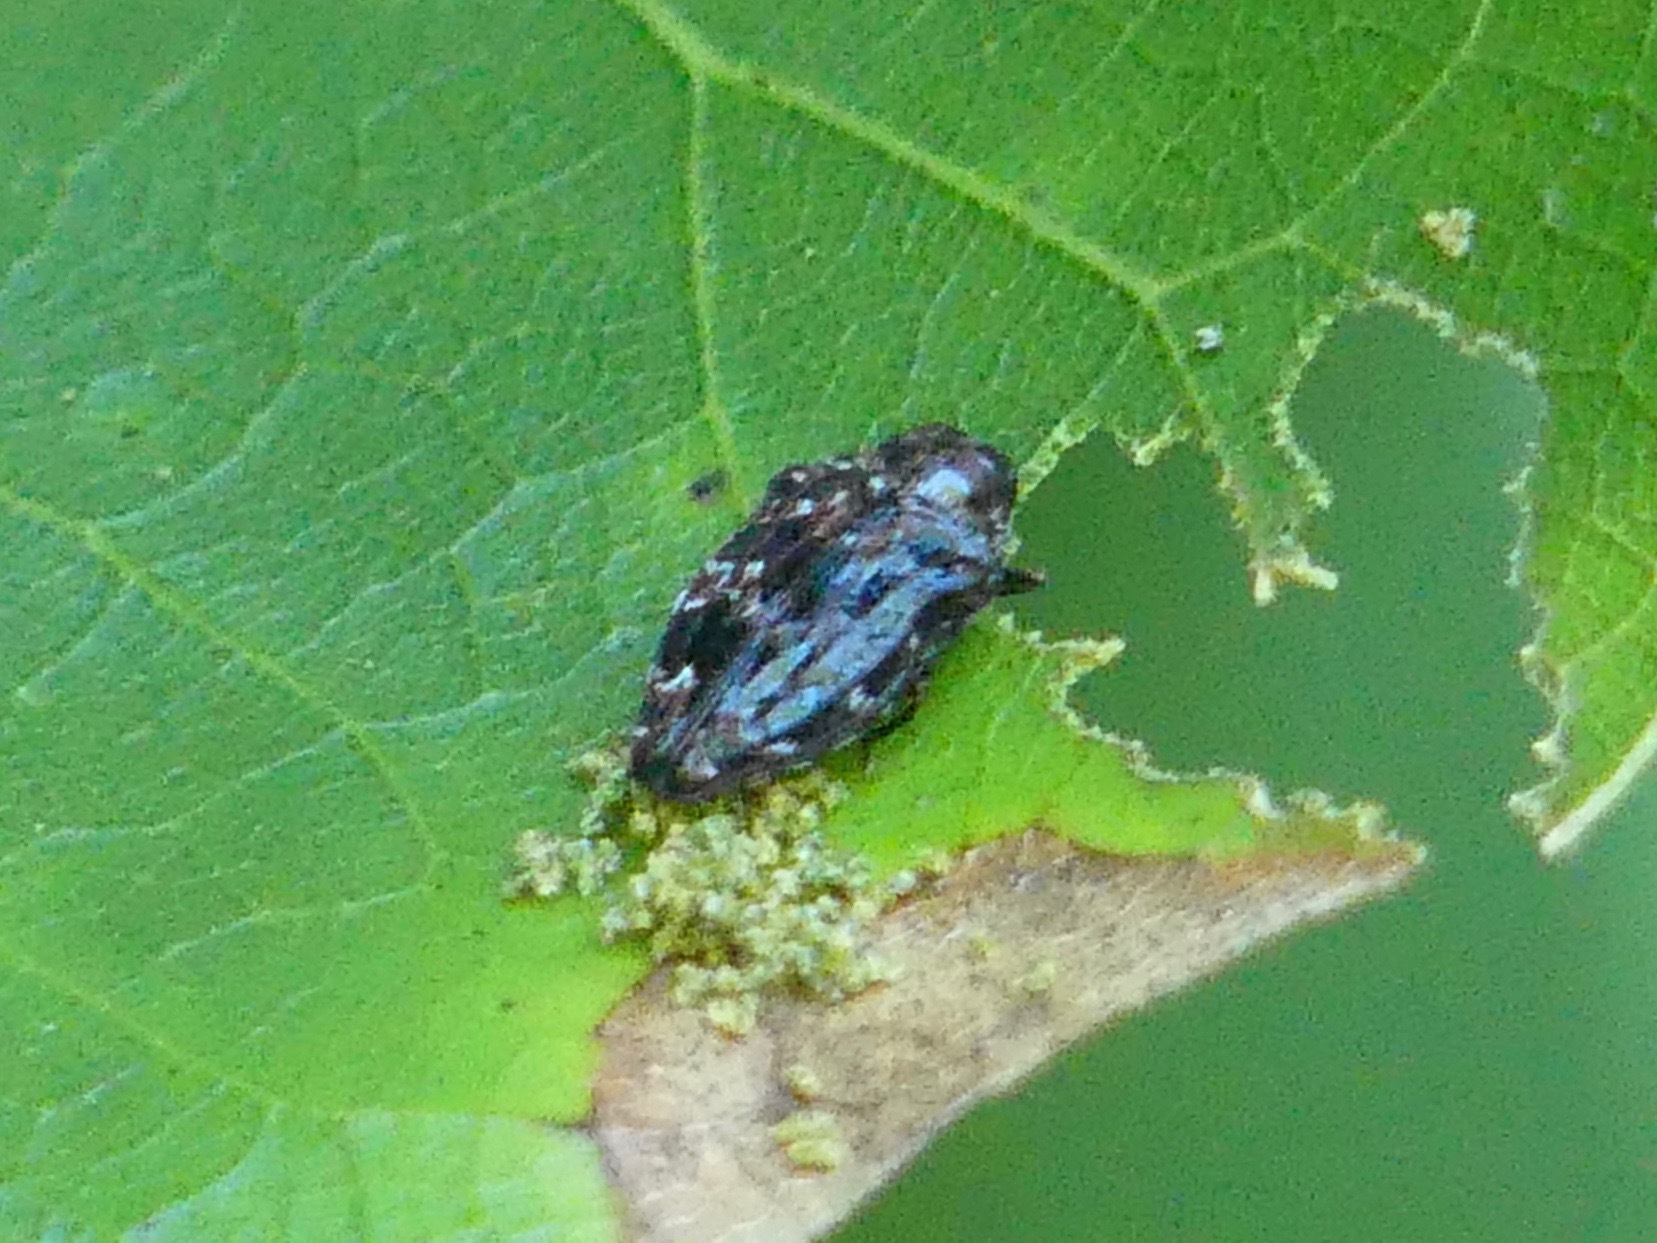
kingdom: Animalia
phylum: Arthropoda
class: Insecta
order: Coleoptera
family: Buprestidae
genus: Brachys
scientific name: Brachys ovatus
